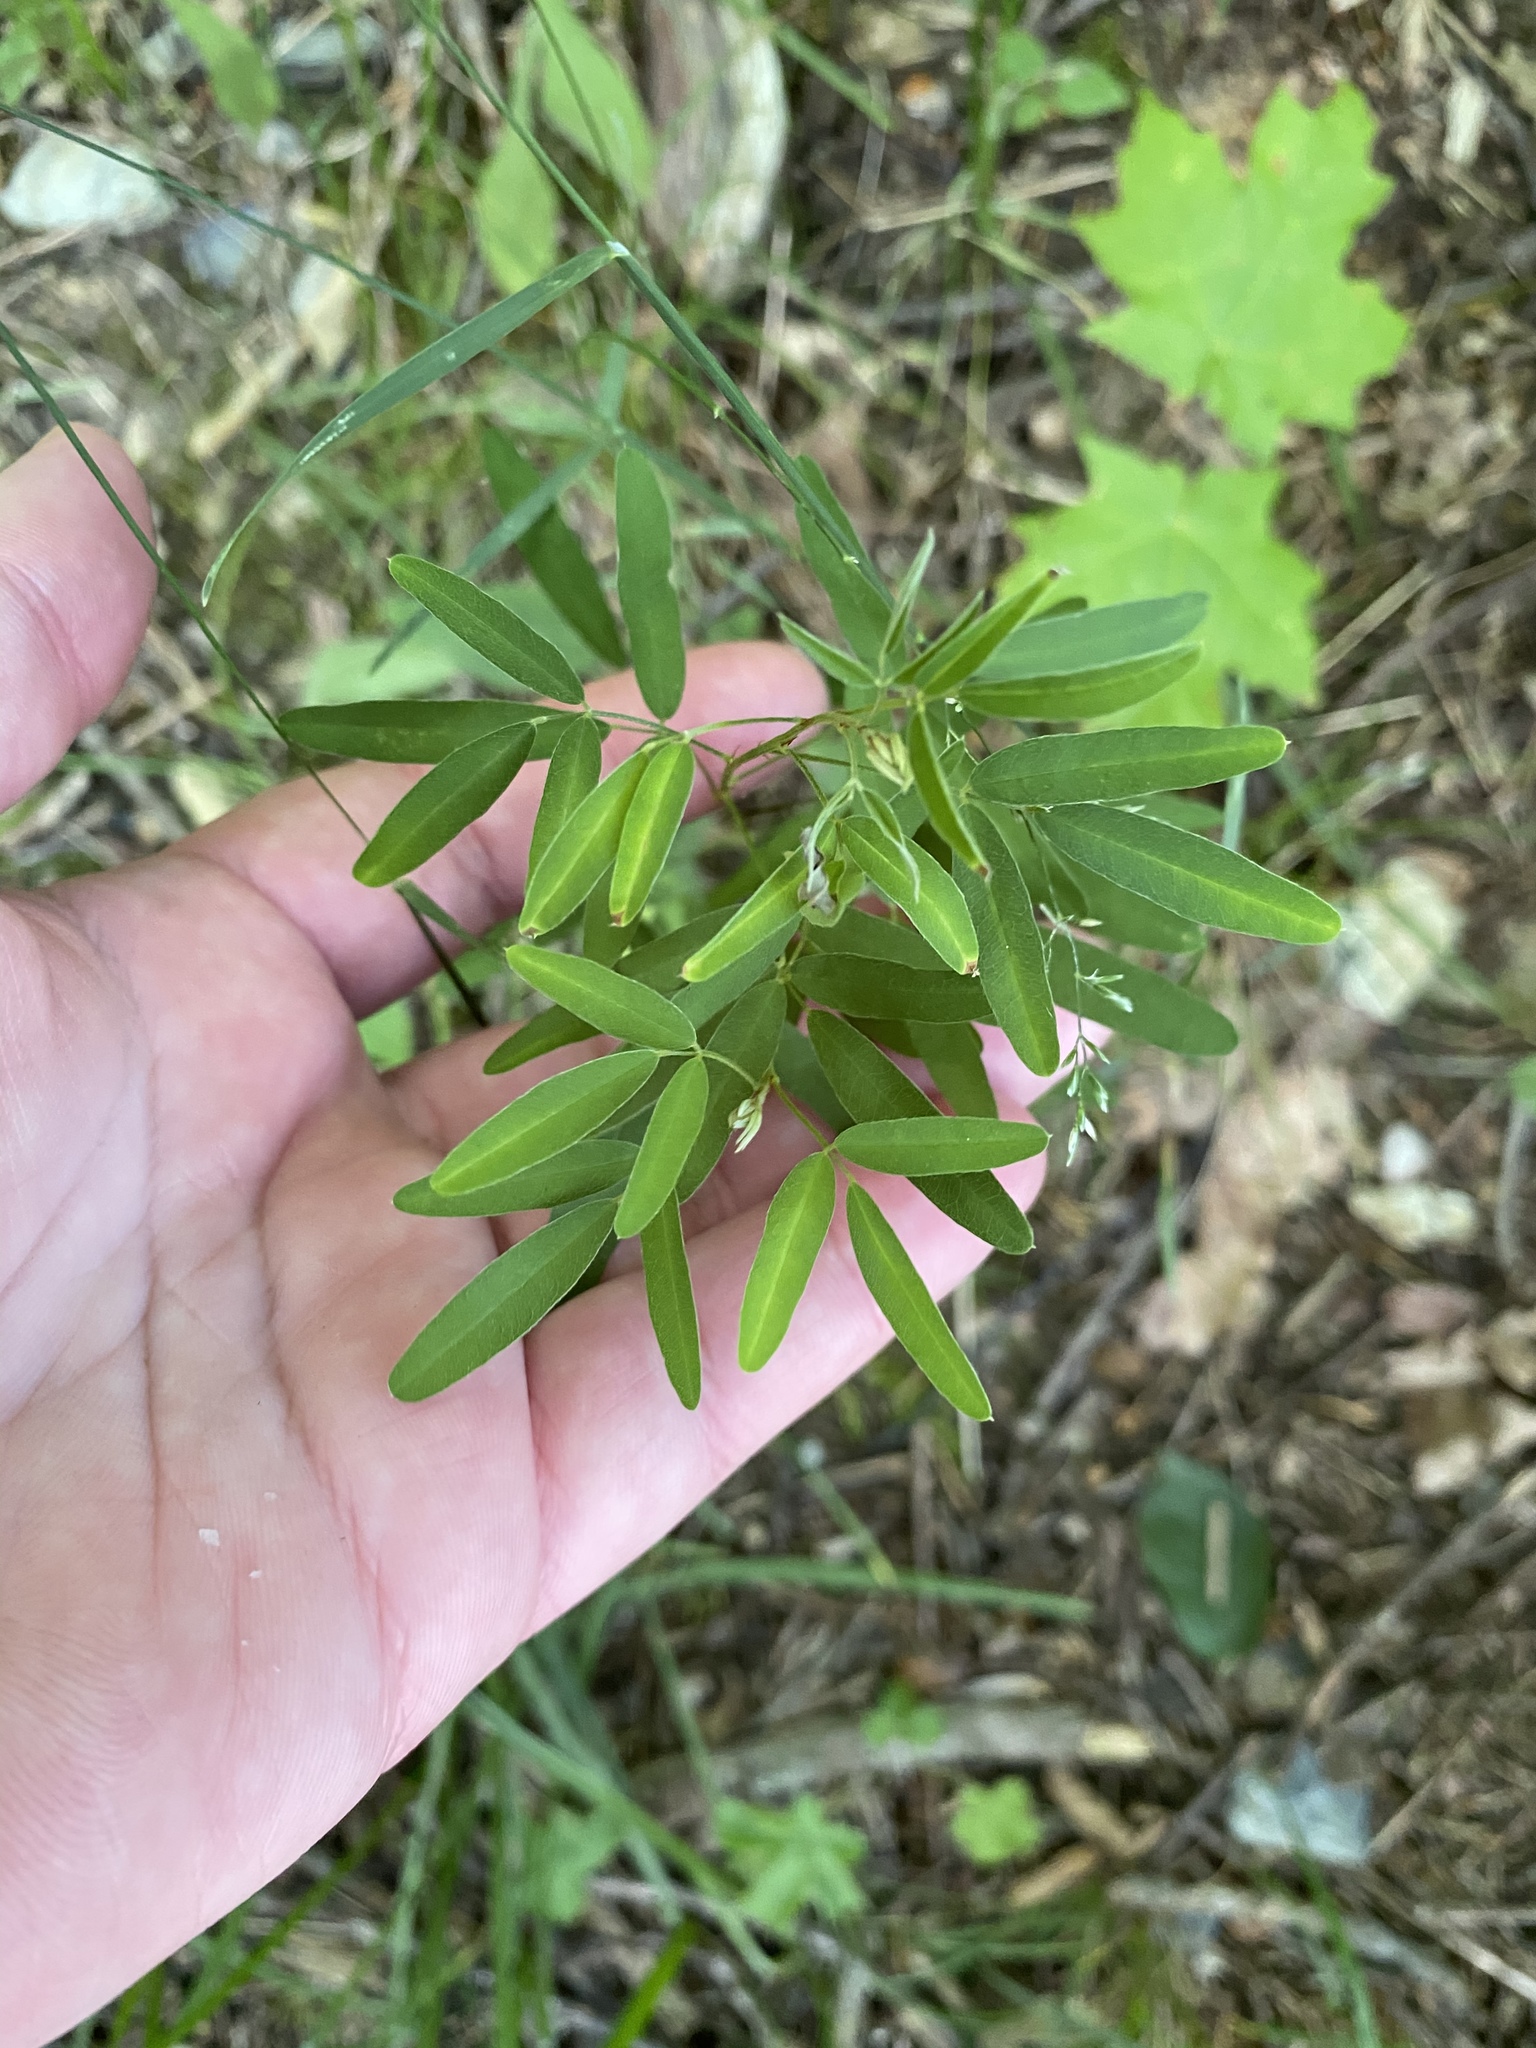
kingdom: Plantae
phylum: Tracheophyta
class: Magnoliopsida
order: Fabales
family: Fabaceae
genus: Lespedeza
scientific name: Lespedeza virginica
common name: Slender bush-clover
